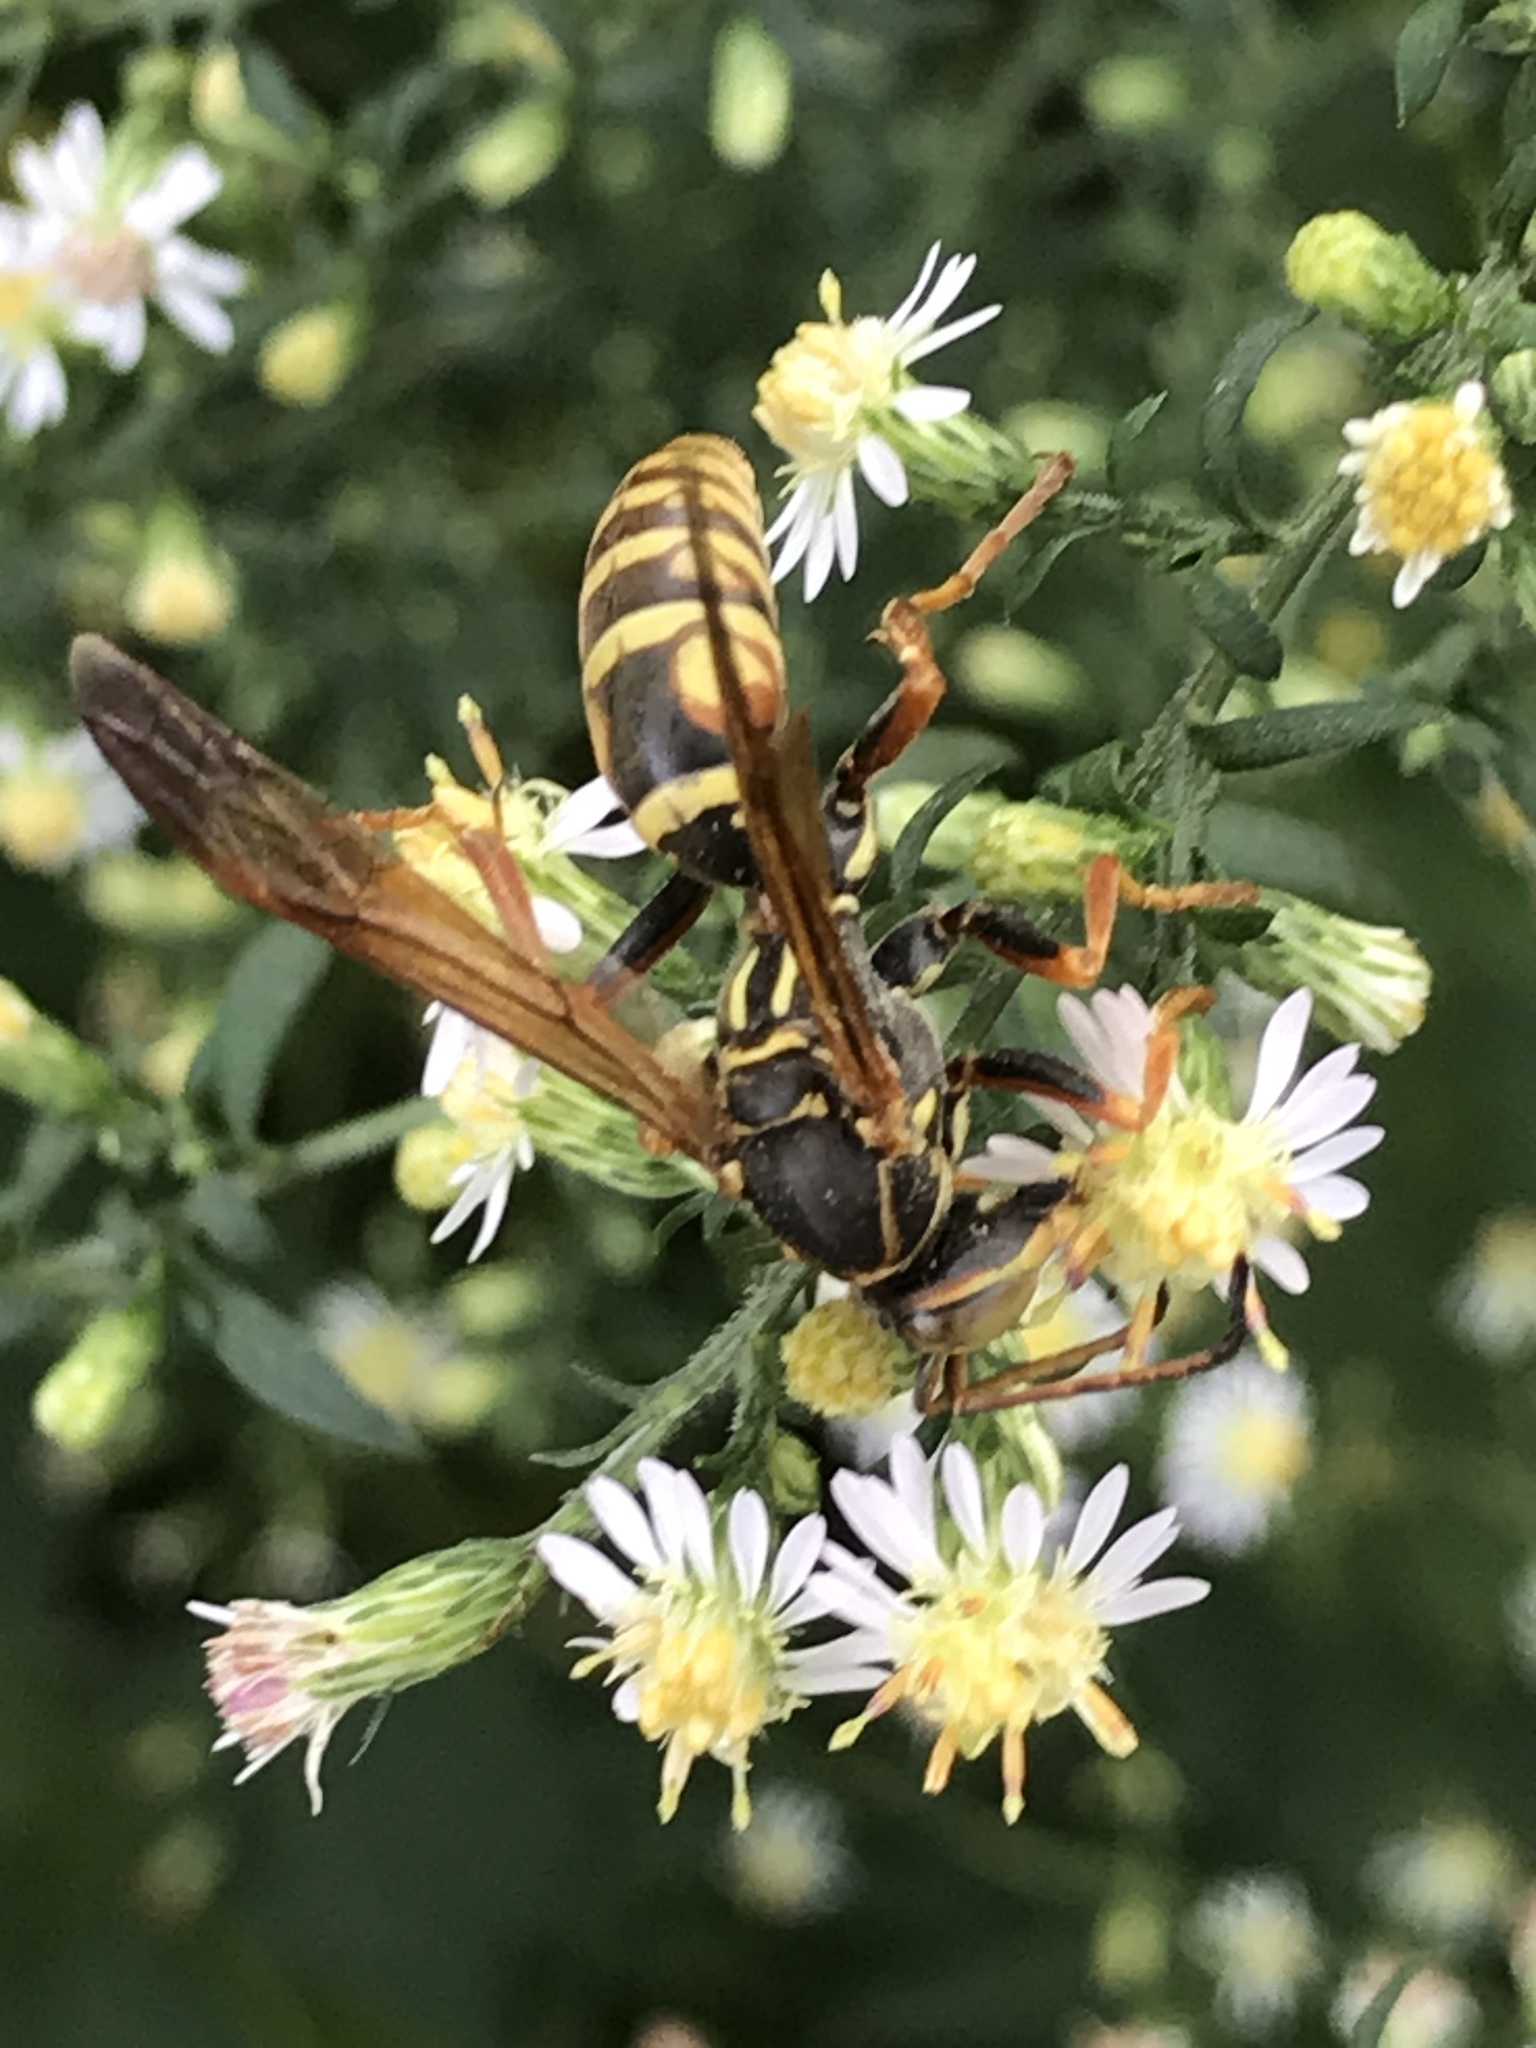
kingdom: Animalia
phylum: Arthropoda
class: Insecta
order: Hymenoptera
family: Eumenidae
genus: Polistes
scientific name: Polistes fuscatus
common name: Dark paper wasp
